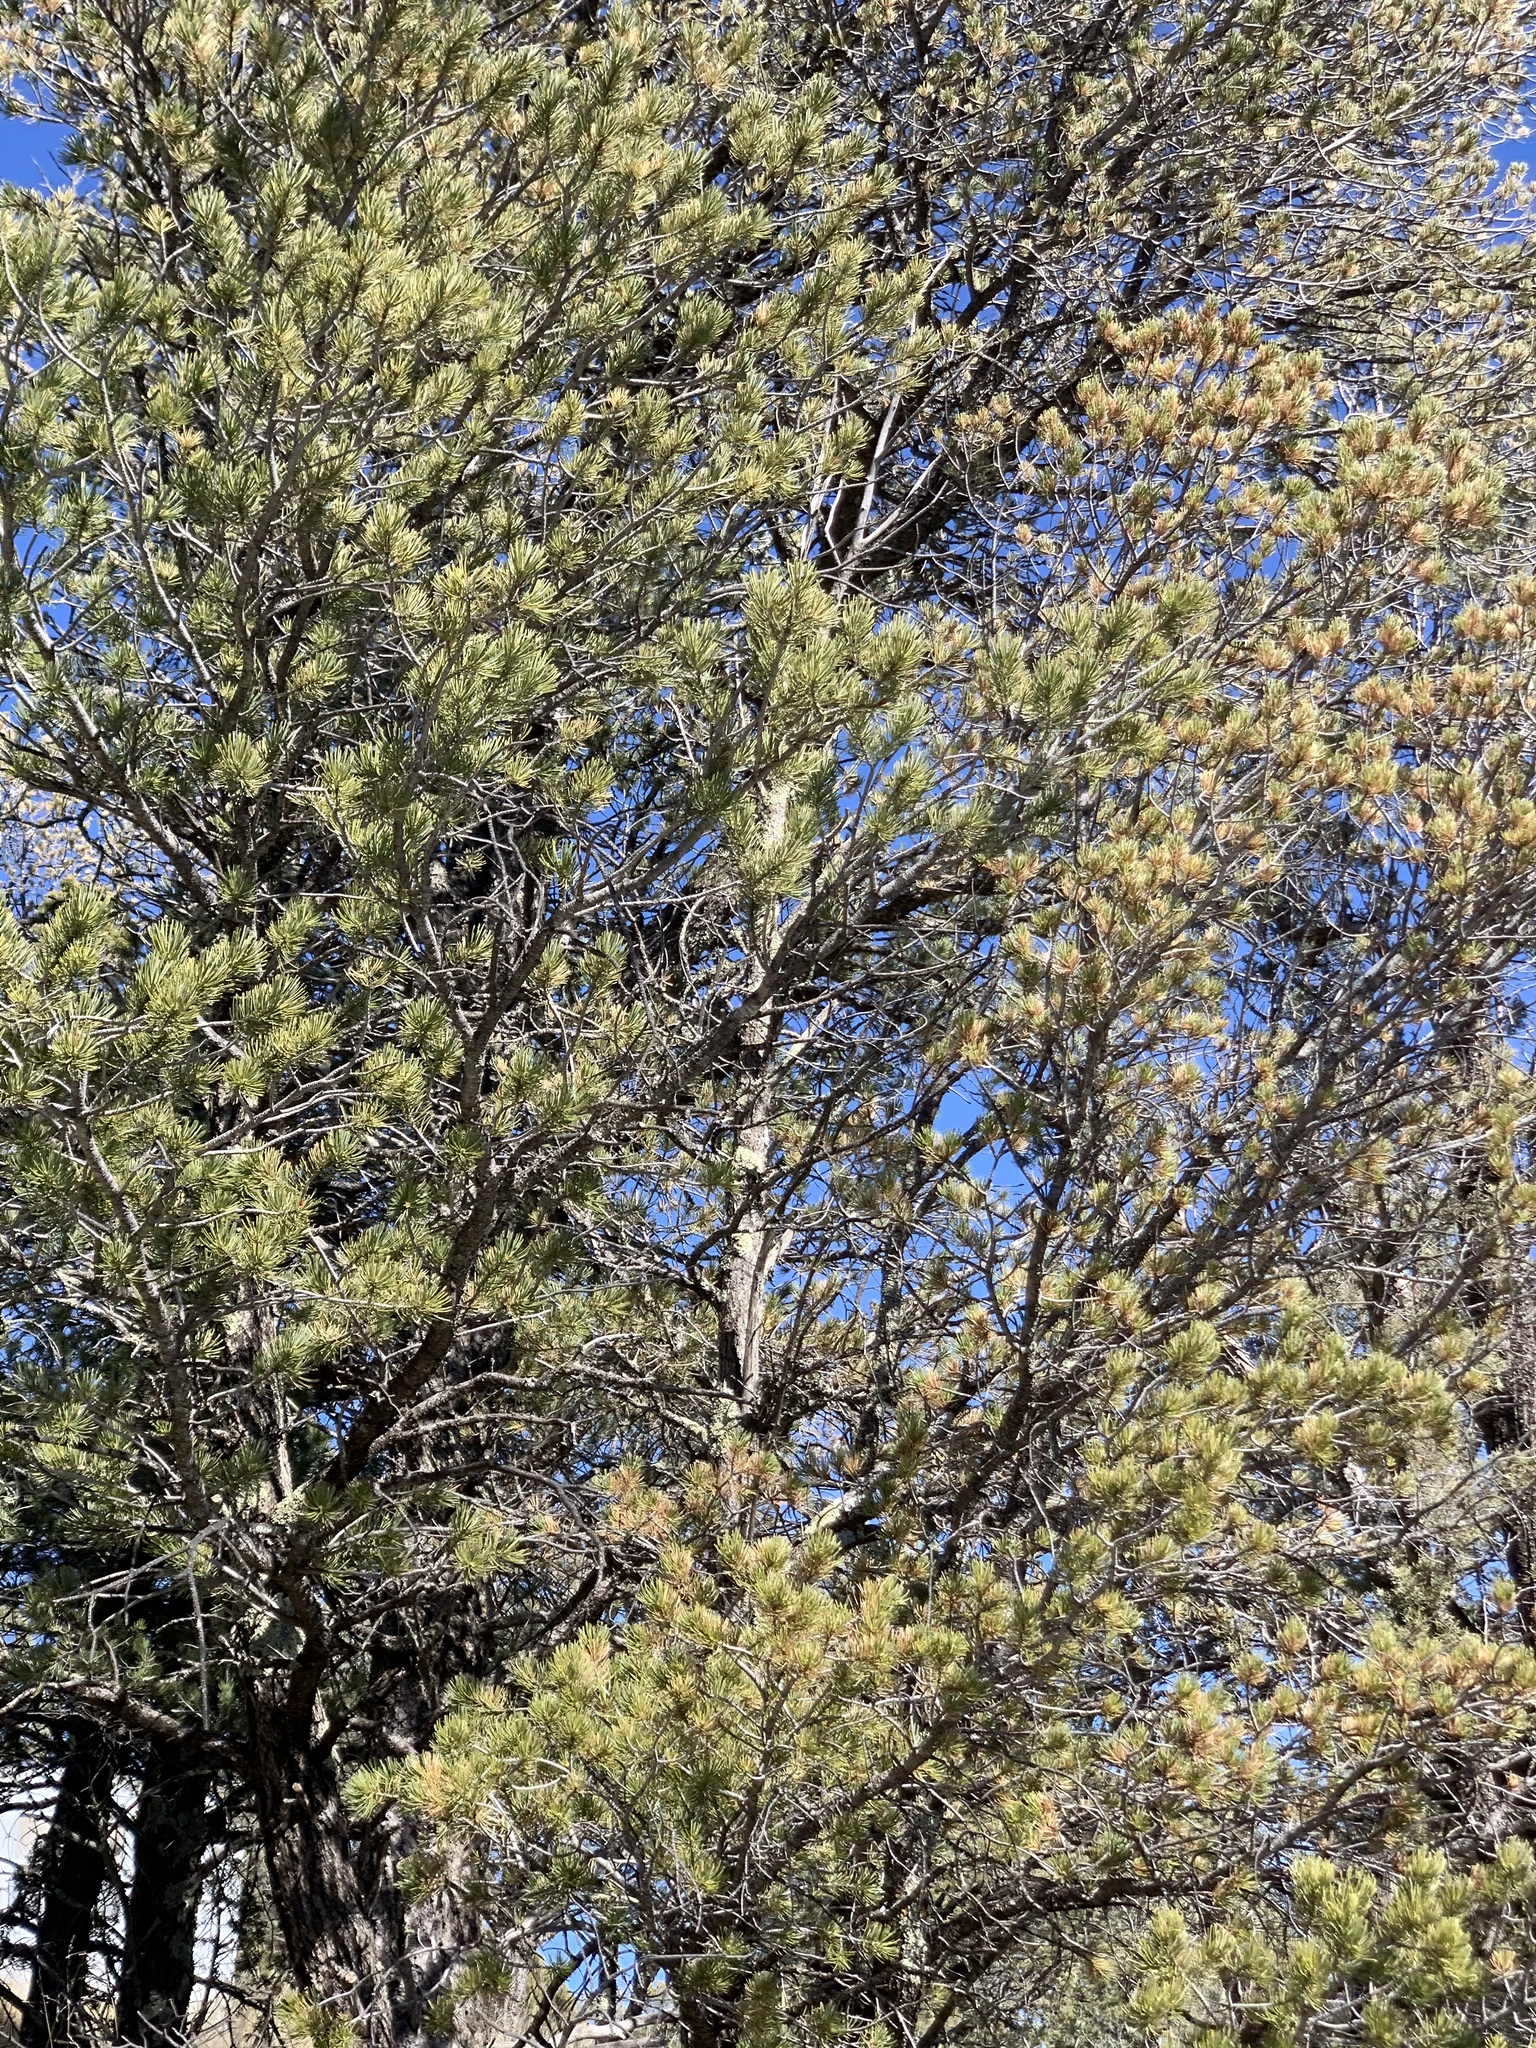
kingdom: Plantae
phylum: Tracheophyta
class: Pinopsida
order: Pinales
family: Pinaceae
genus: Pinus
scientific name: Pinus edulis
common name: Colorado pinyon
